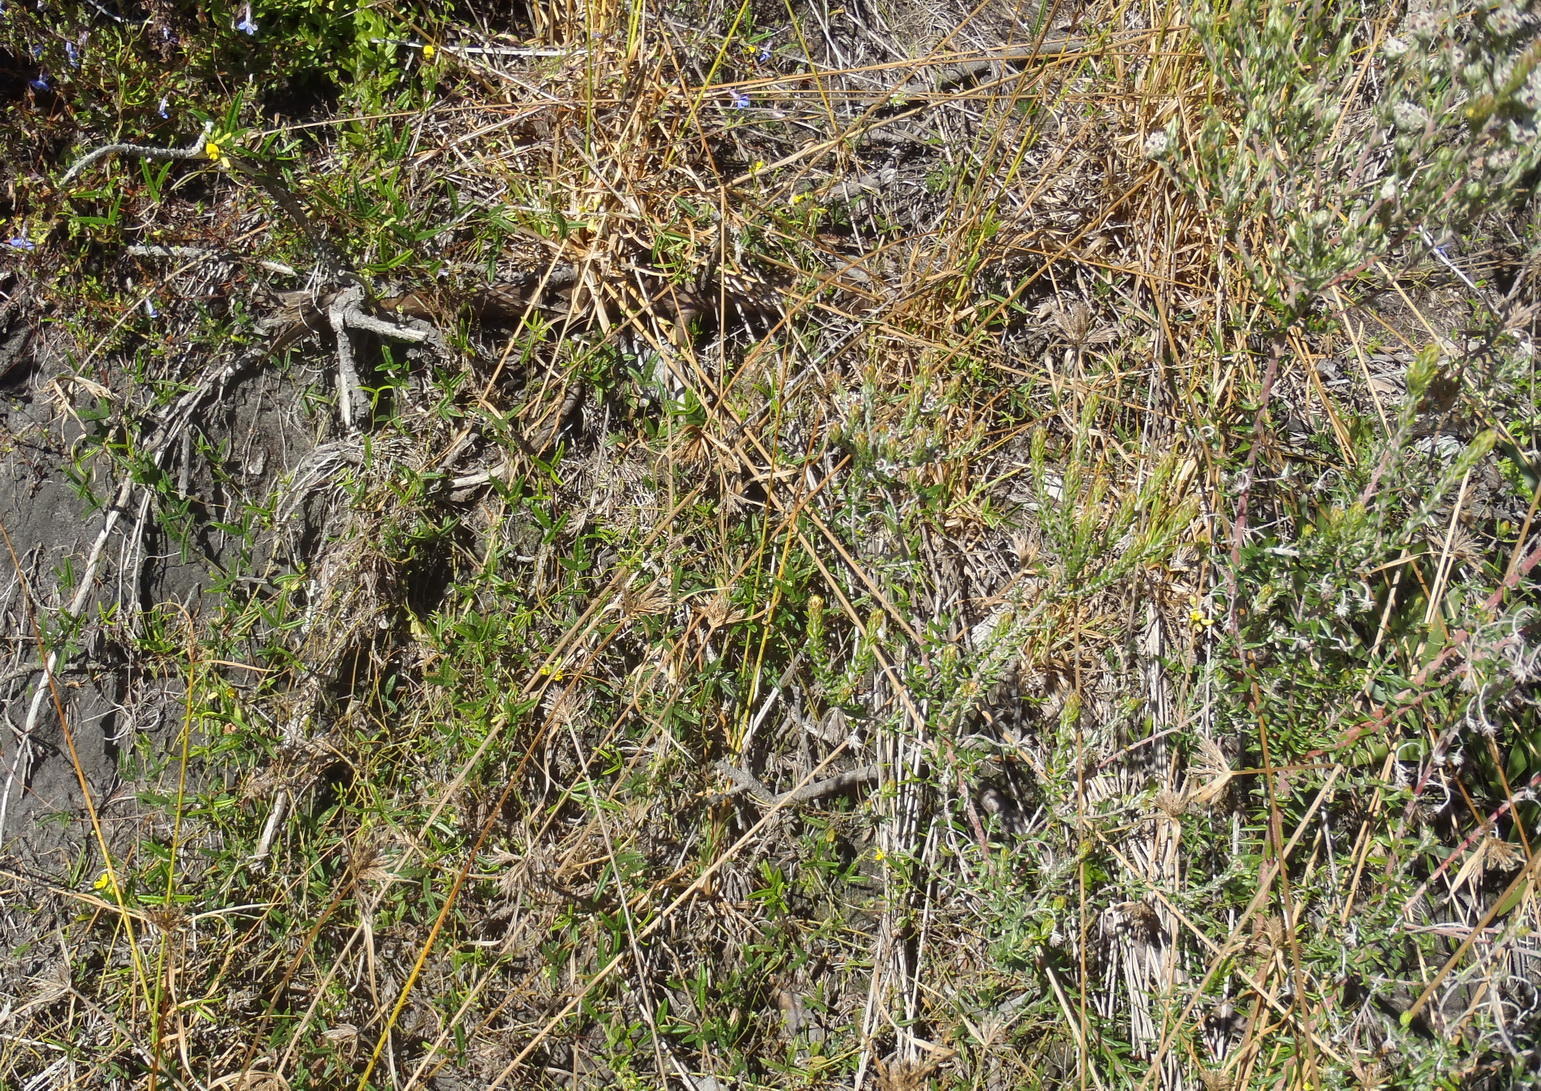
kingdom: Plantae
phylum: Tracheophyta
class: Magnoliopsida
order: Fabales
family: Fabaceae
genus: Rhynchosia
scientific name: Rhynchosia leucoscias
